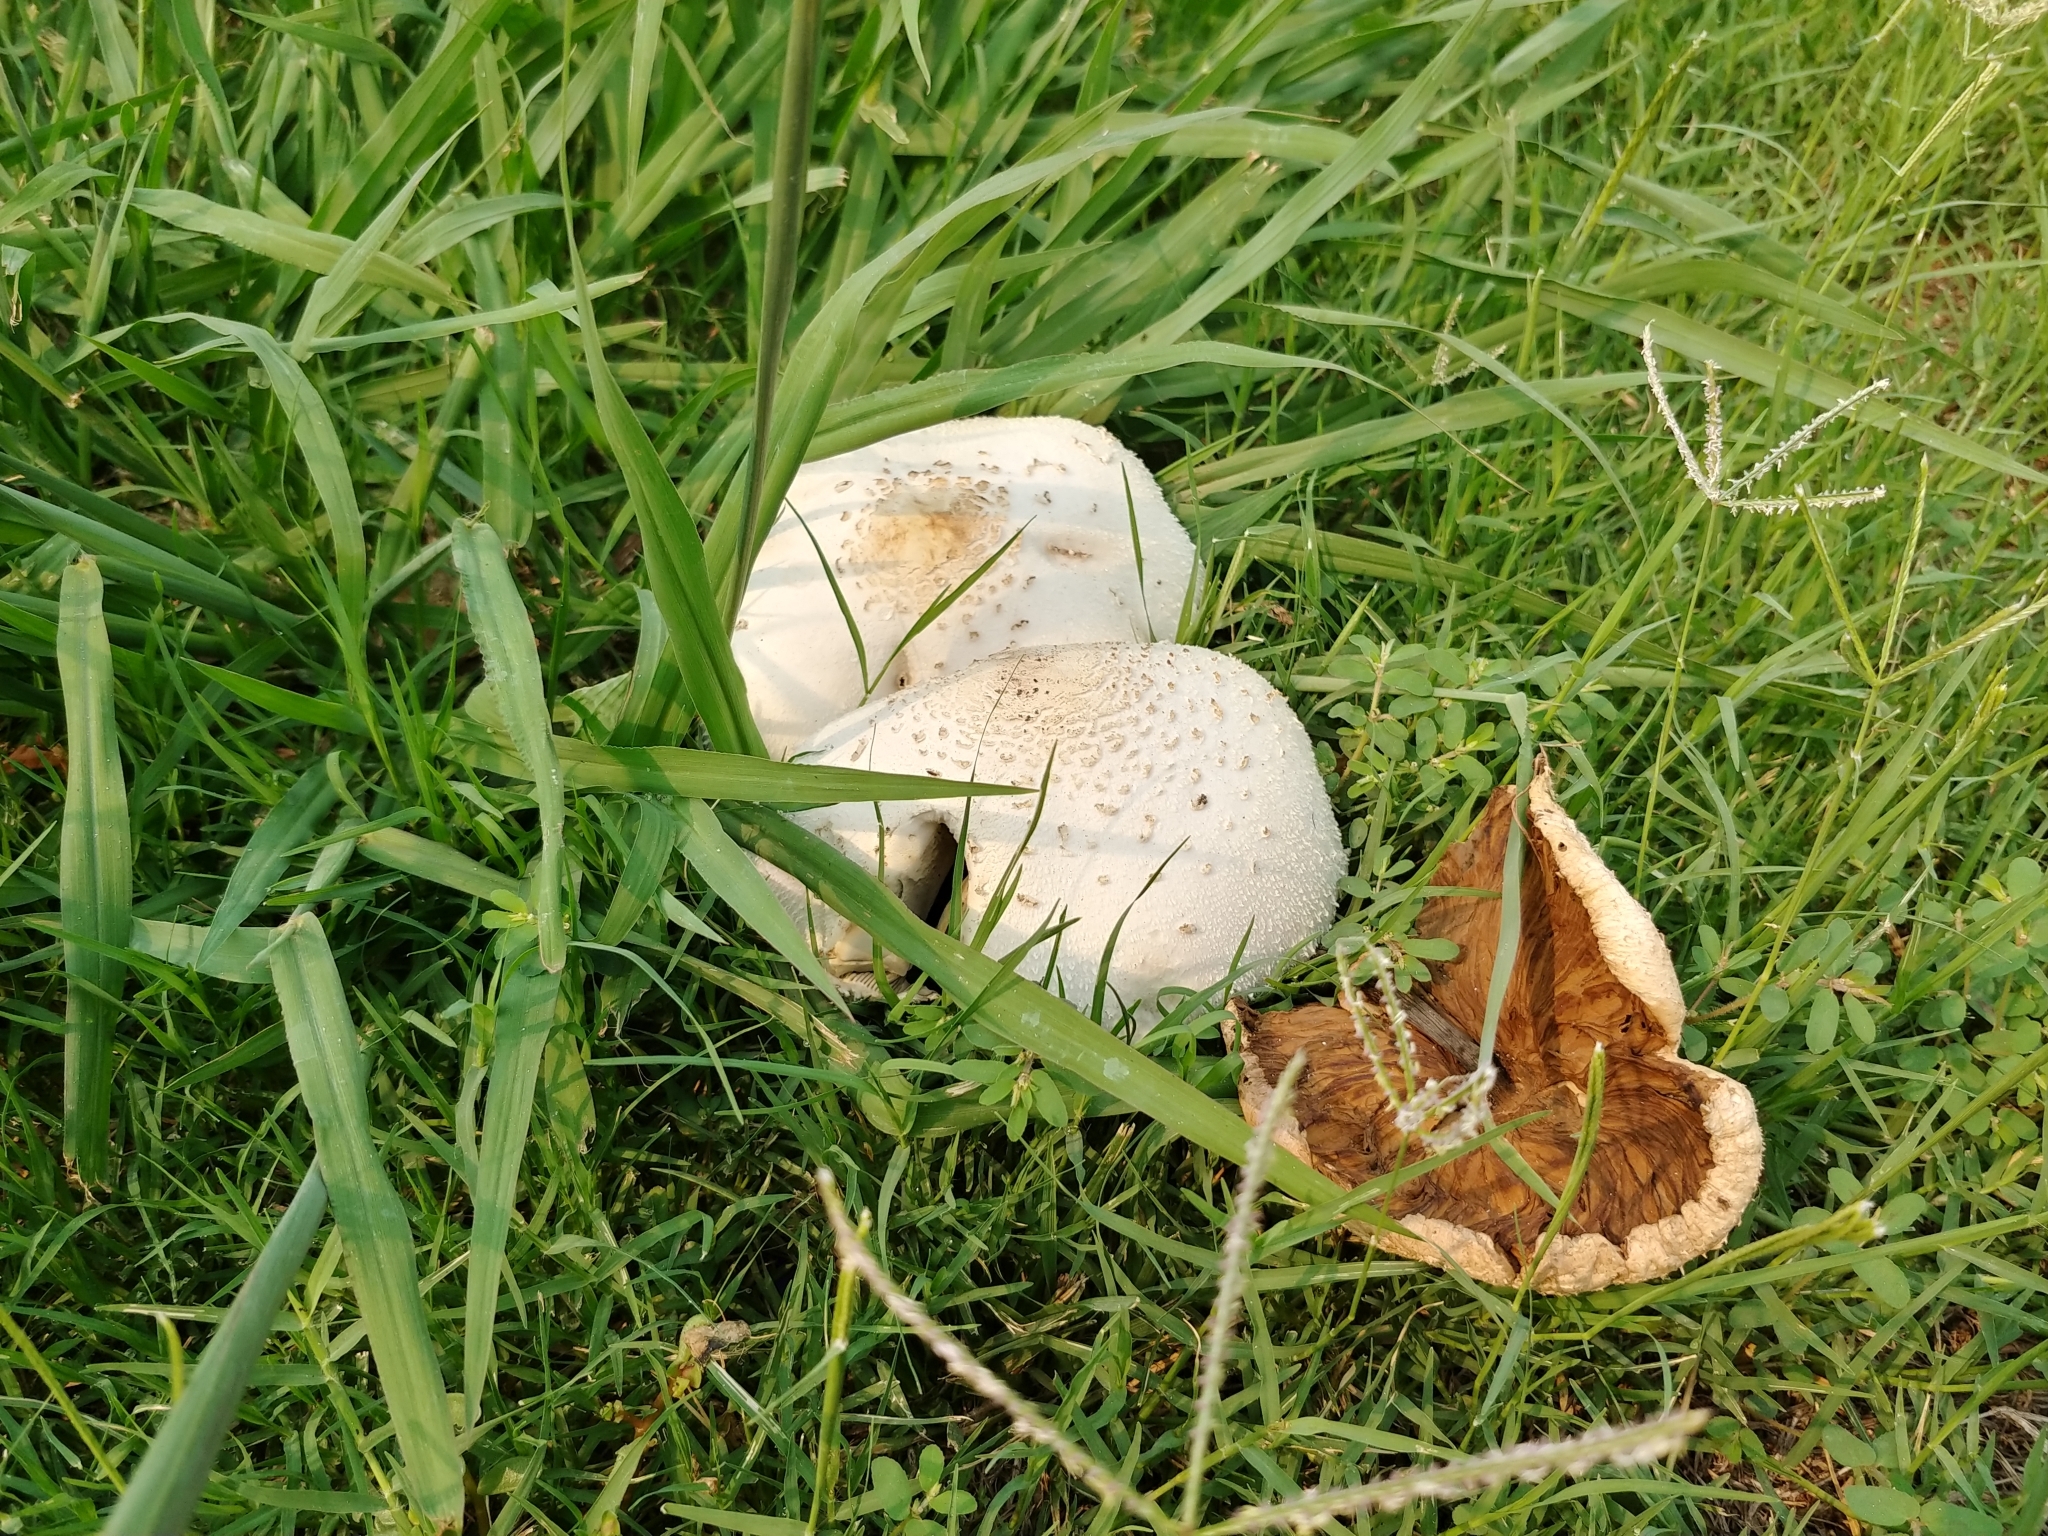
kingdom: Fungi
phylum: Basidiomycota
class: Agaricomycetes
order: Agaricales
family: Agaricaceae
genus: Chlorophyllum
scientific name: Chlorophyllum molybdites
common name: False parasol
